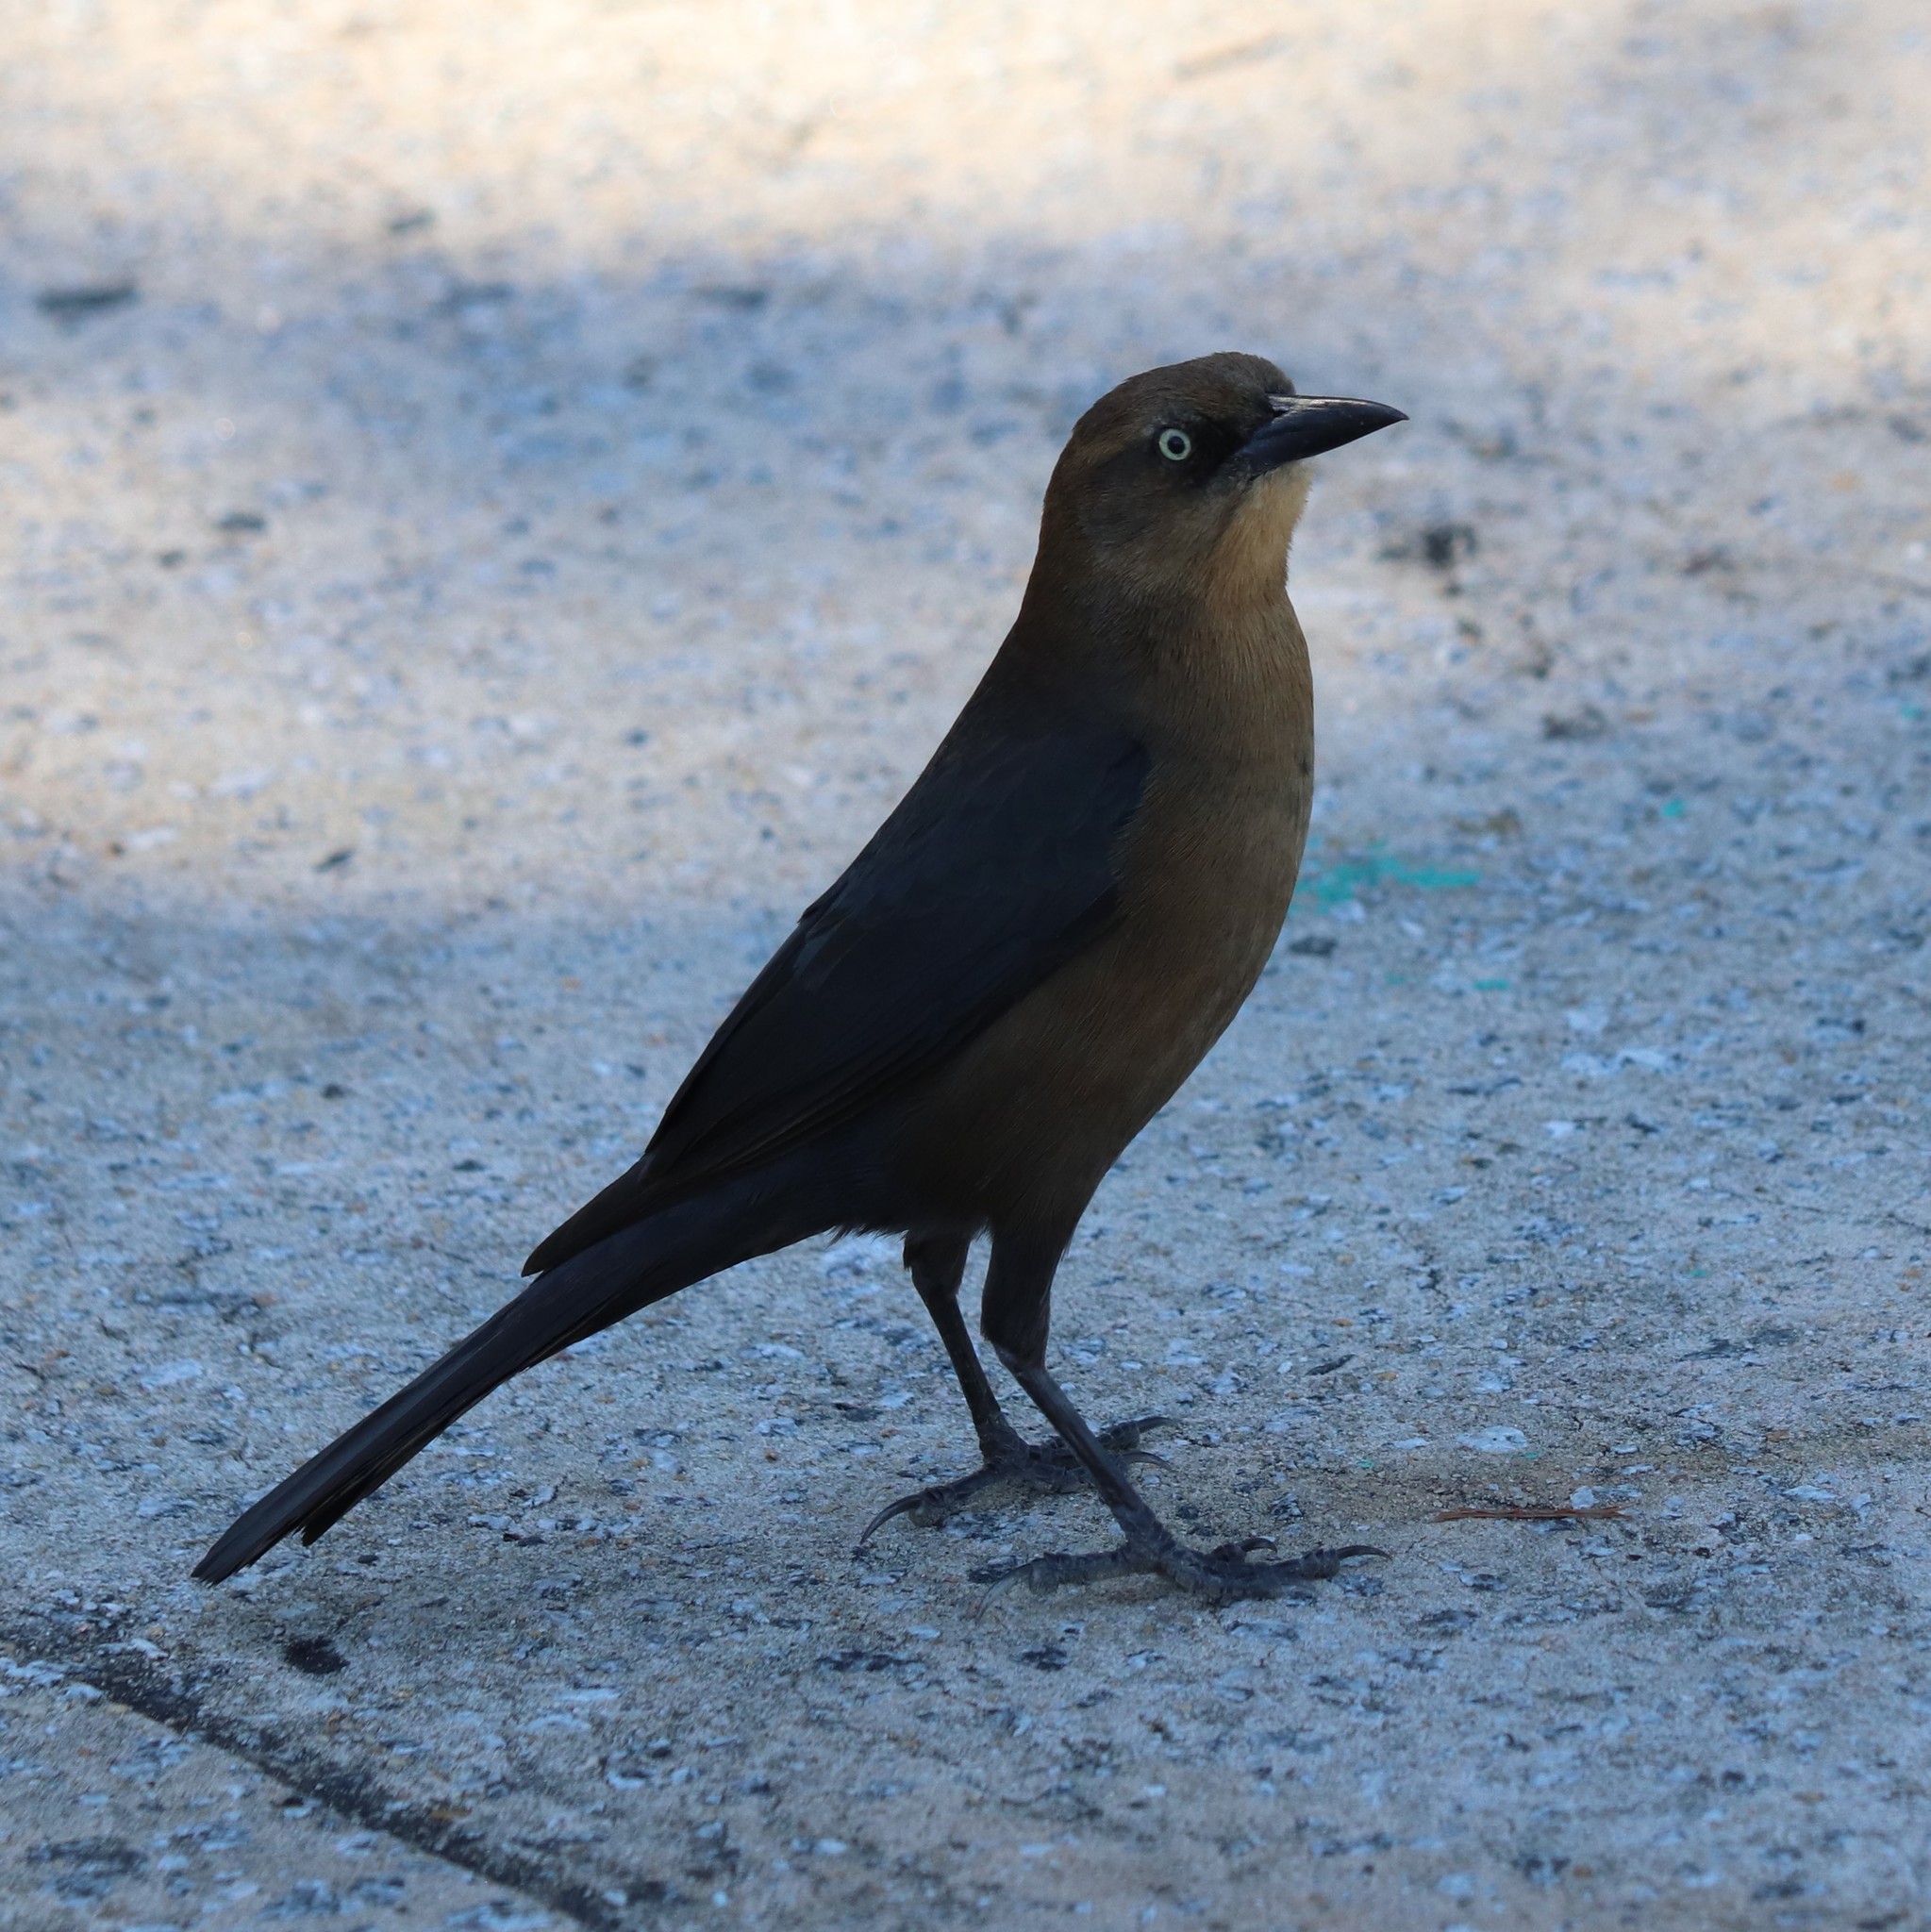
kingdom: Animalia
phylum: Chordata
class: Aves
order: Passeriformes
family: Icteridae
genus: Quiscalus
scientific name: Quiscalus major
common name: Boat-tailed grackle
